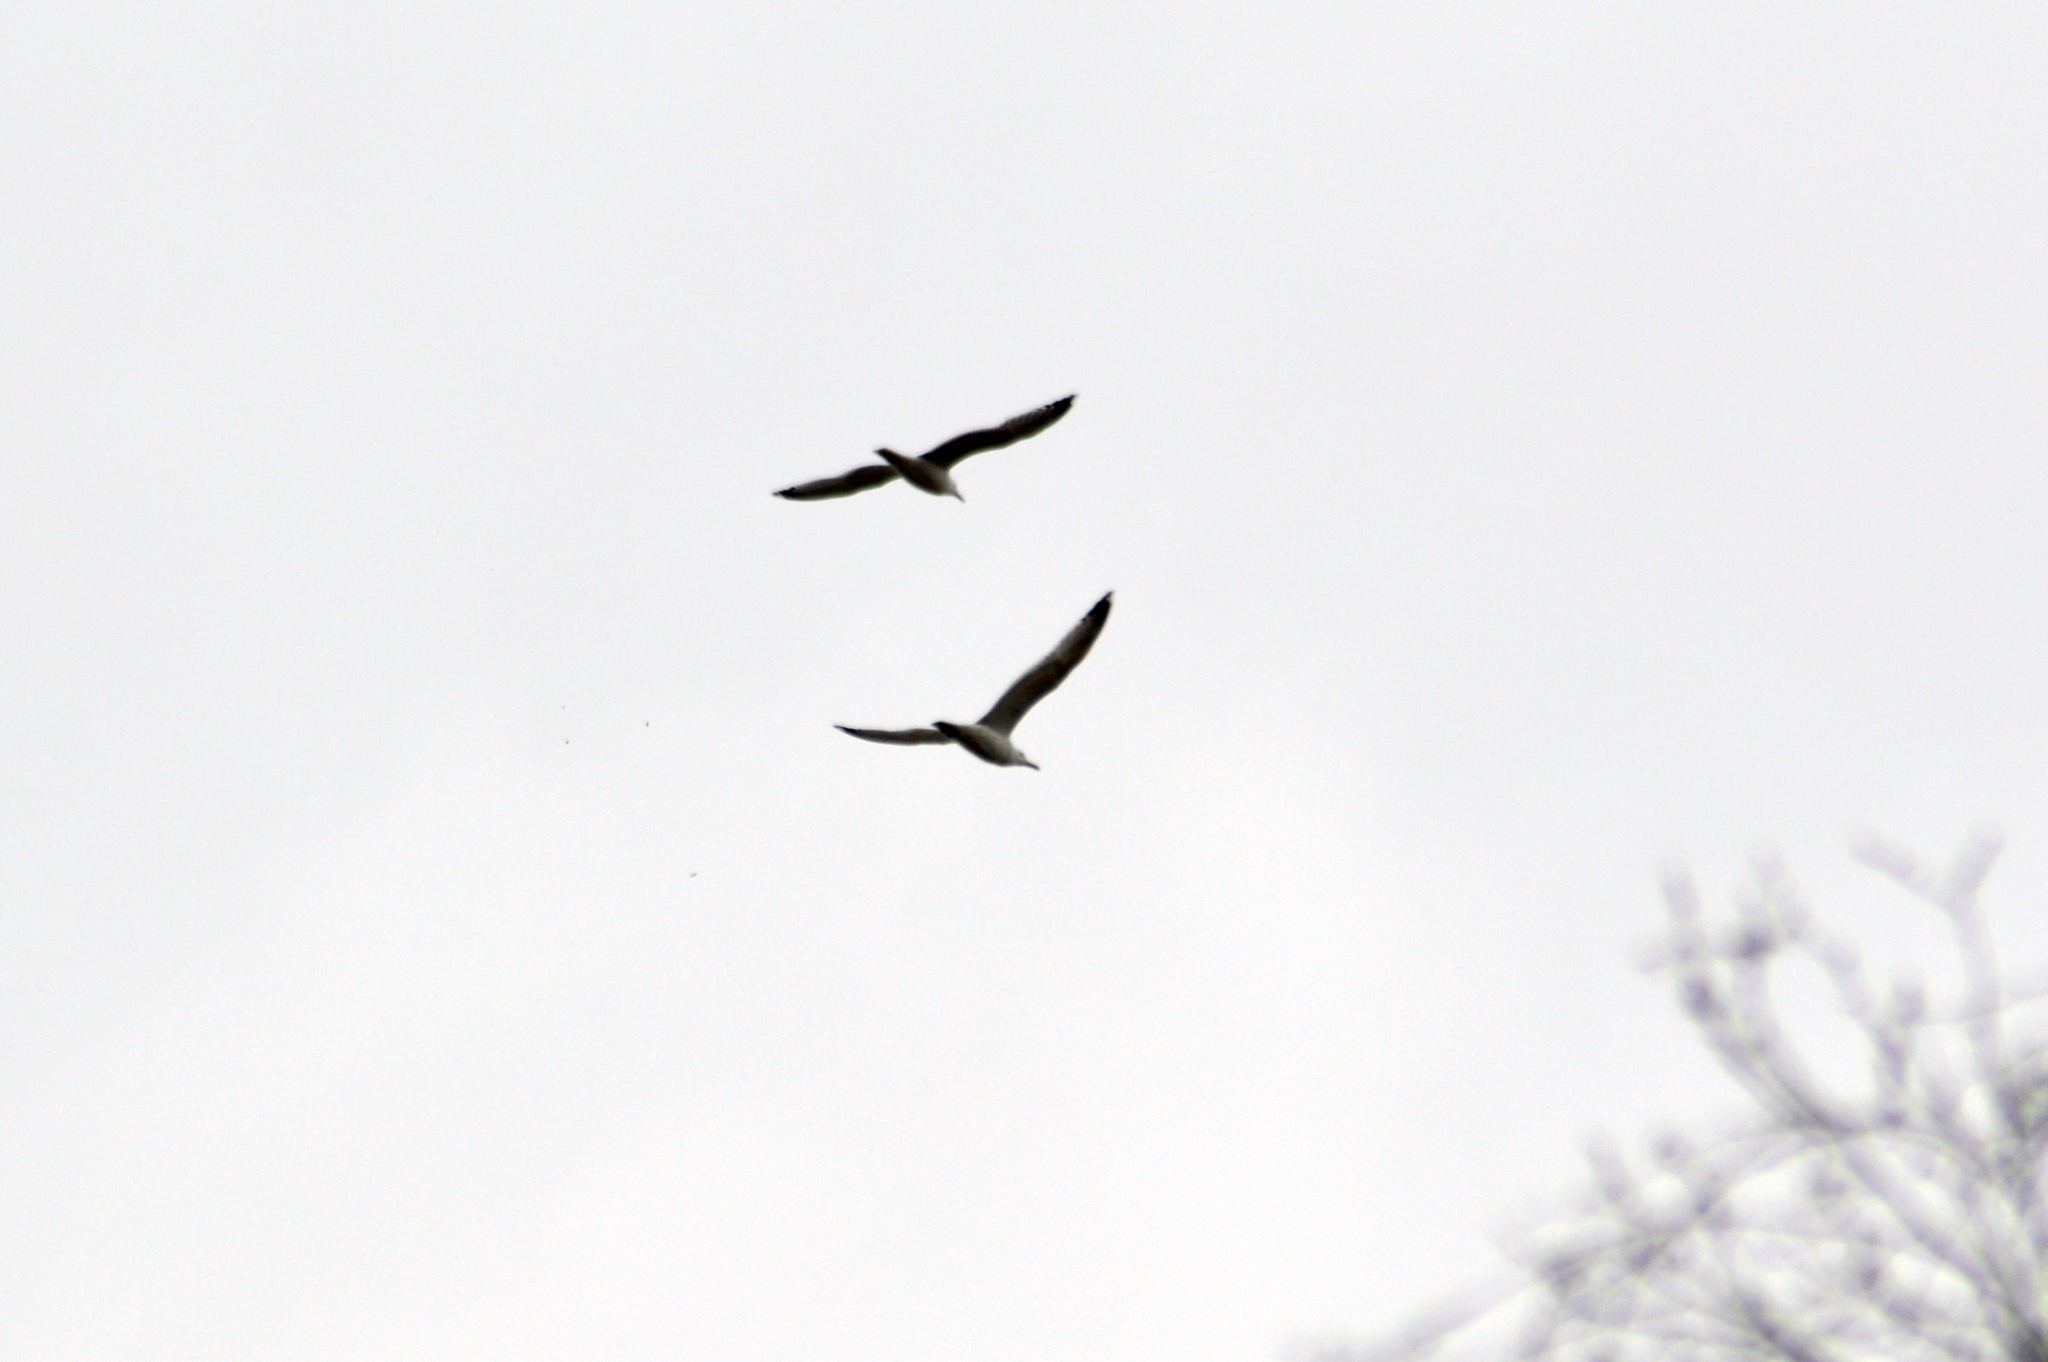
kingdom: Animalia
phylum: Chordata
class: Aves
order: Charadriiformes
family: Laridae
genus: Larus
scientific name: Larus cachinnans
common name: Caspian gull
